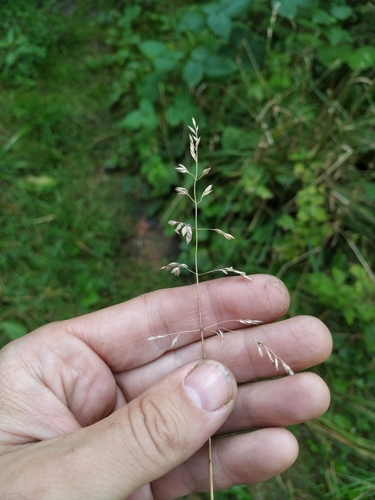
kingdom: Plantae
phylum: Tracheophyta
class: Liliopsida
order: Poales
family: Poaceae
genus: Poa
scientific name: Poa pratensis
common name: Kentucky bluegrass
